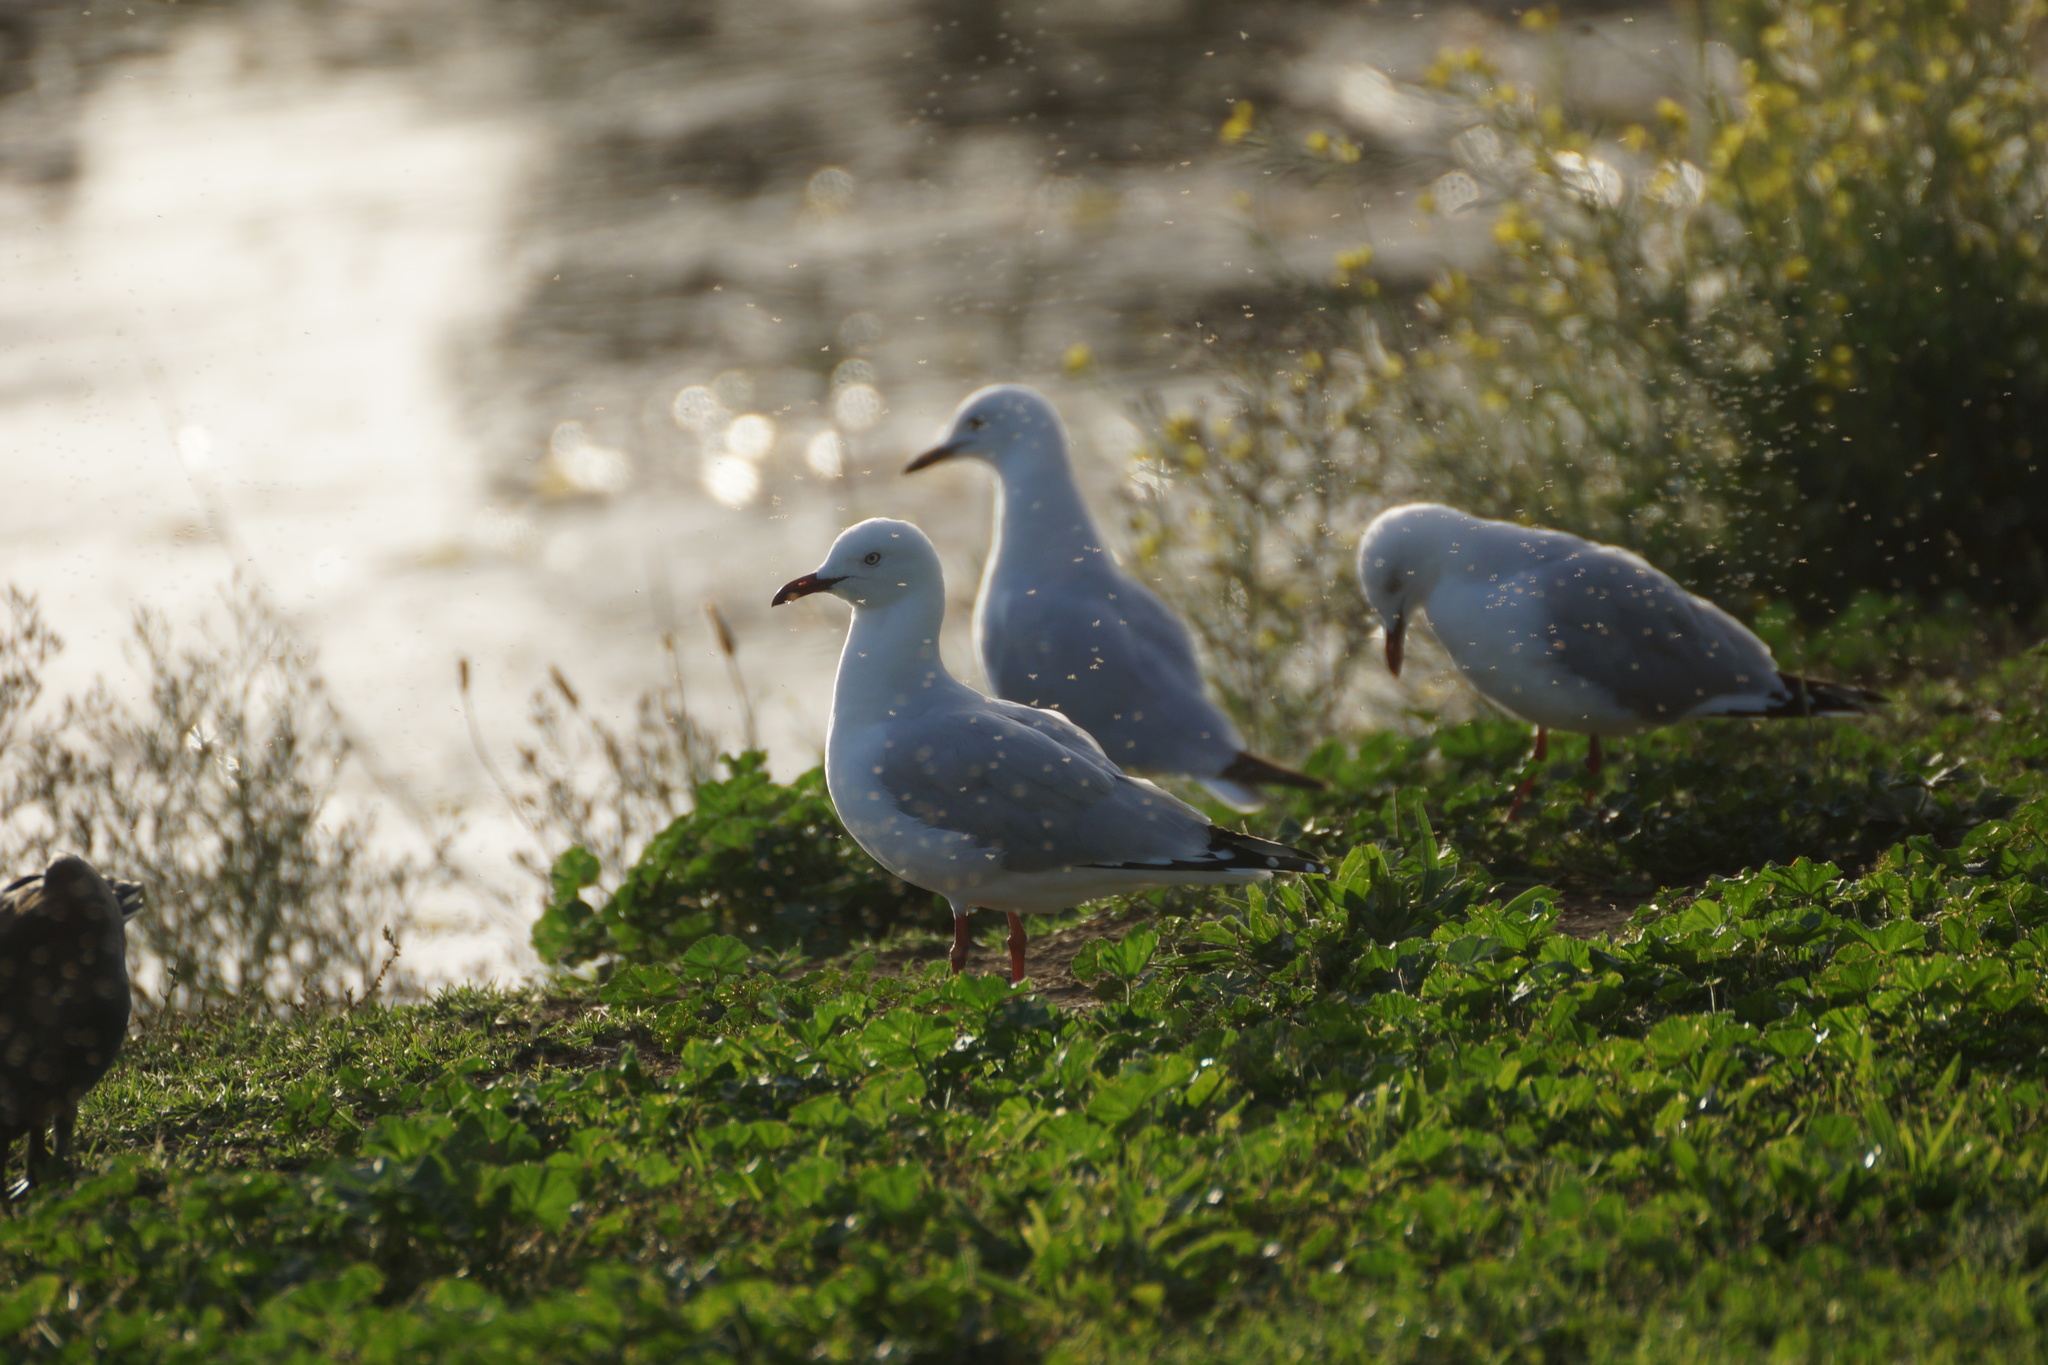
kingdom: Animalia
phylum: Chordata
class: Aves
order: Charadriiformes
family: Laridae
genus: Chroicocephalus
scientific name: Chroicocephalus novaehollandiae
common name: Silver gull
